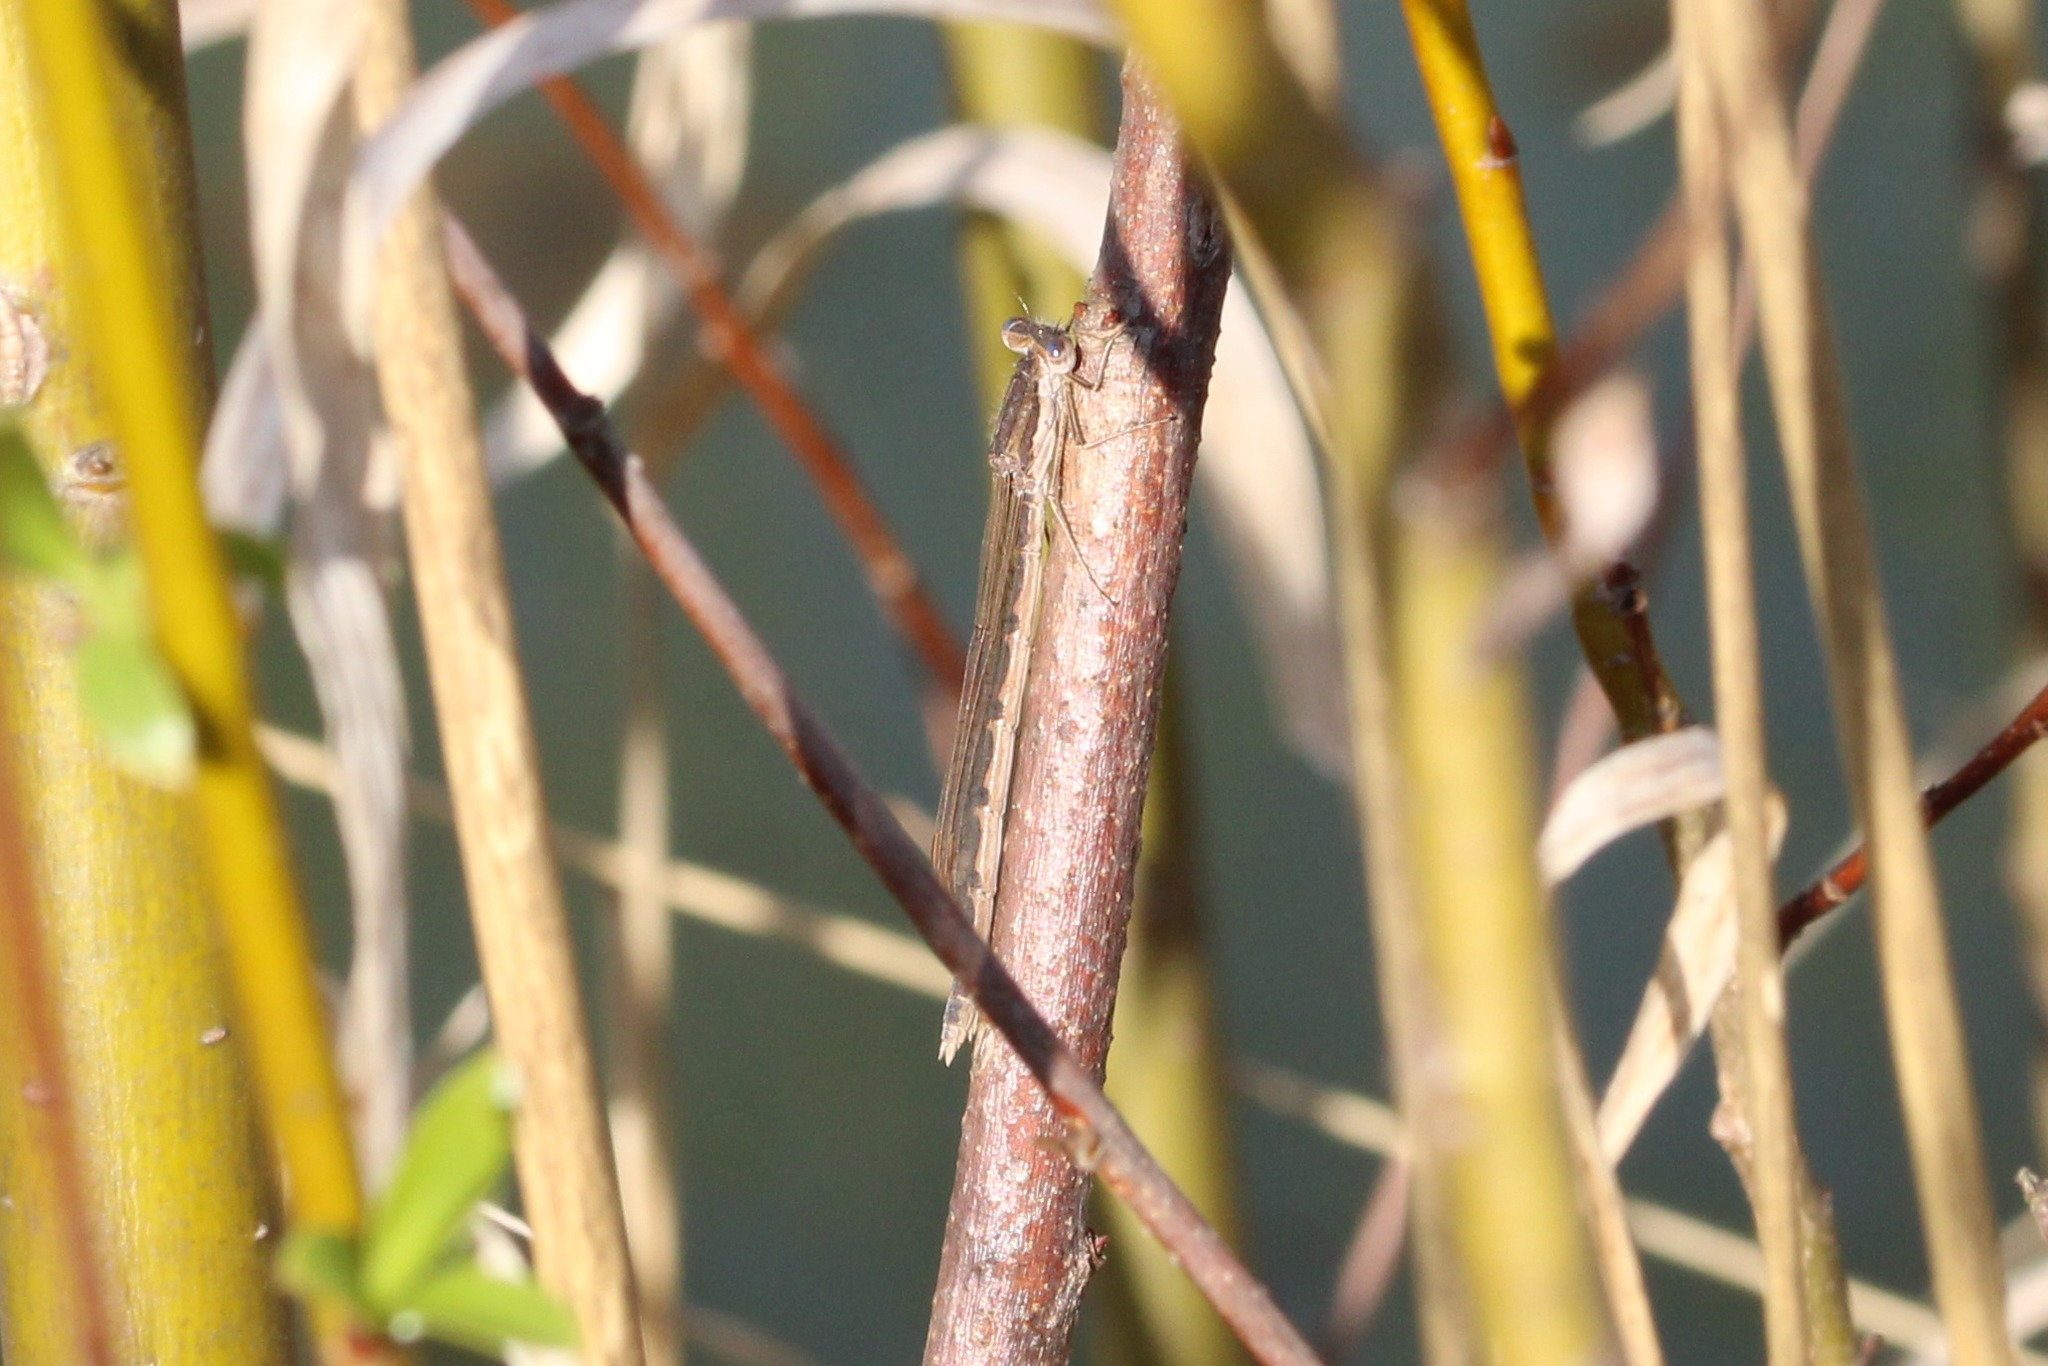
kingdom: Animalia
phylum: Arthropoda
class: Insecta
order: Odonata
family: Lestidae
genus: Sympecma
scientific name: Sympecma fusca
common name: Common winter damsel
